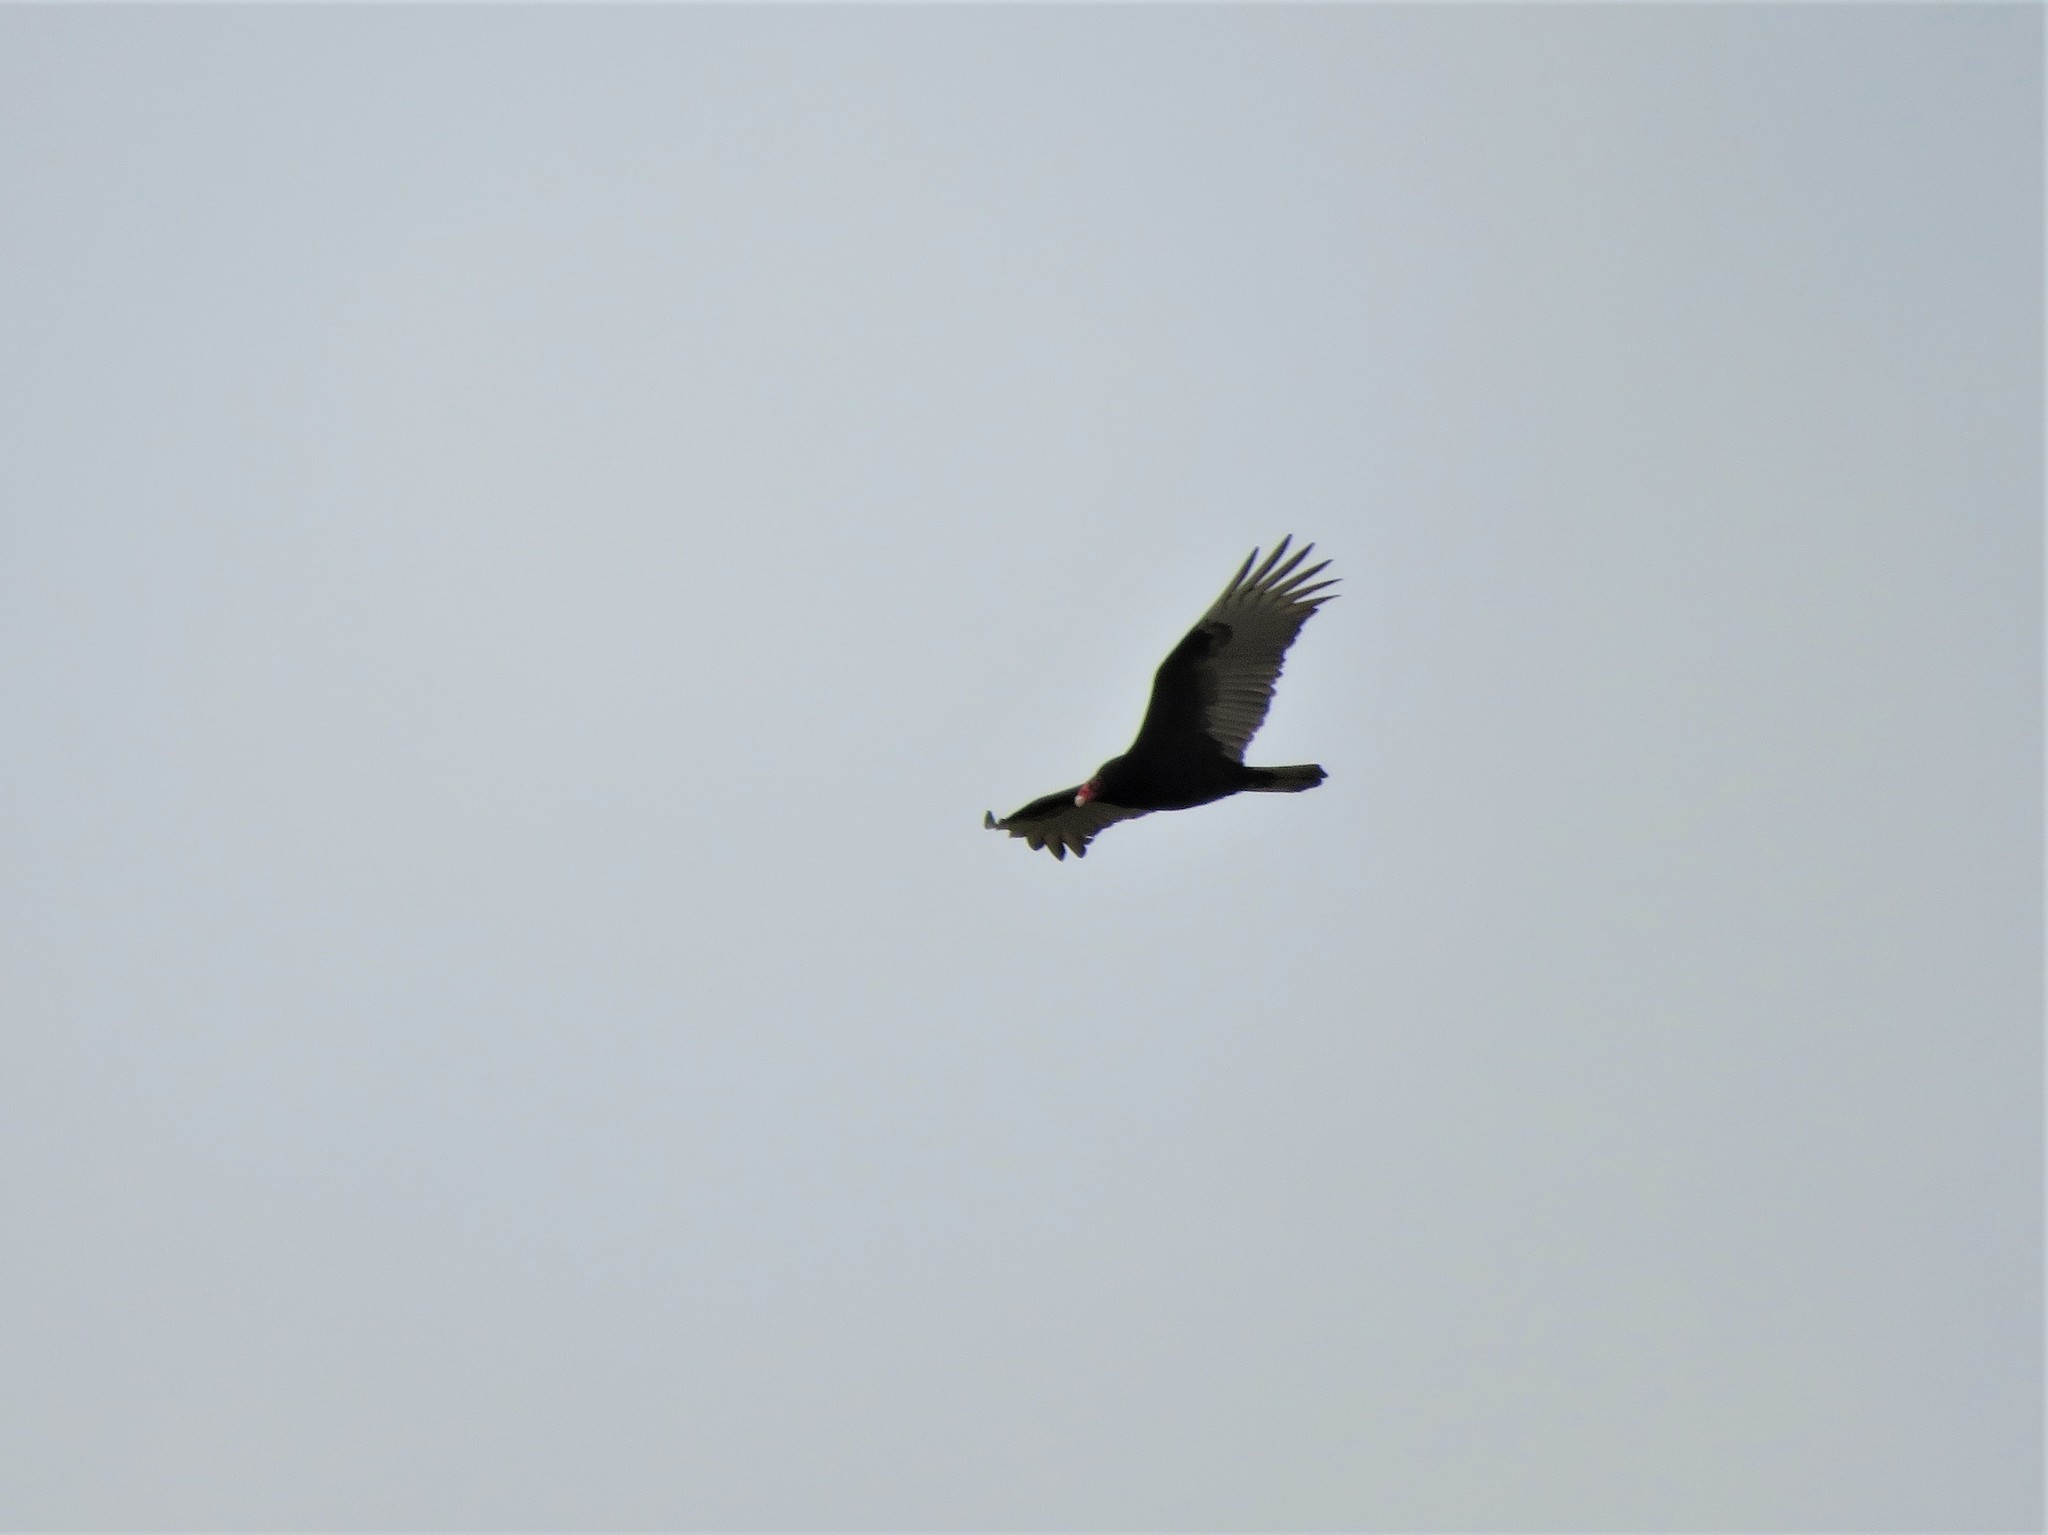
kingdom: Animalia
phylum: Chordata
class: Aves
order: Accipitriformes
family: Cathartidae
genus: Cathartes
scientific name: Cathartes aura
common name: Turkey vulture
